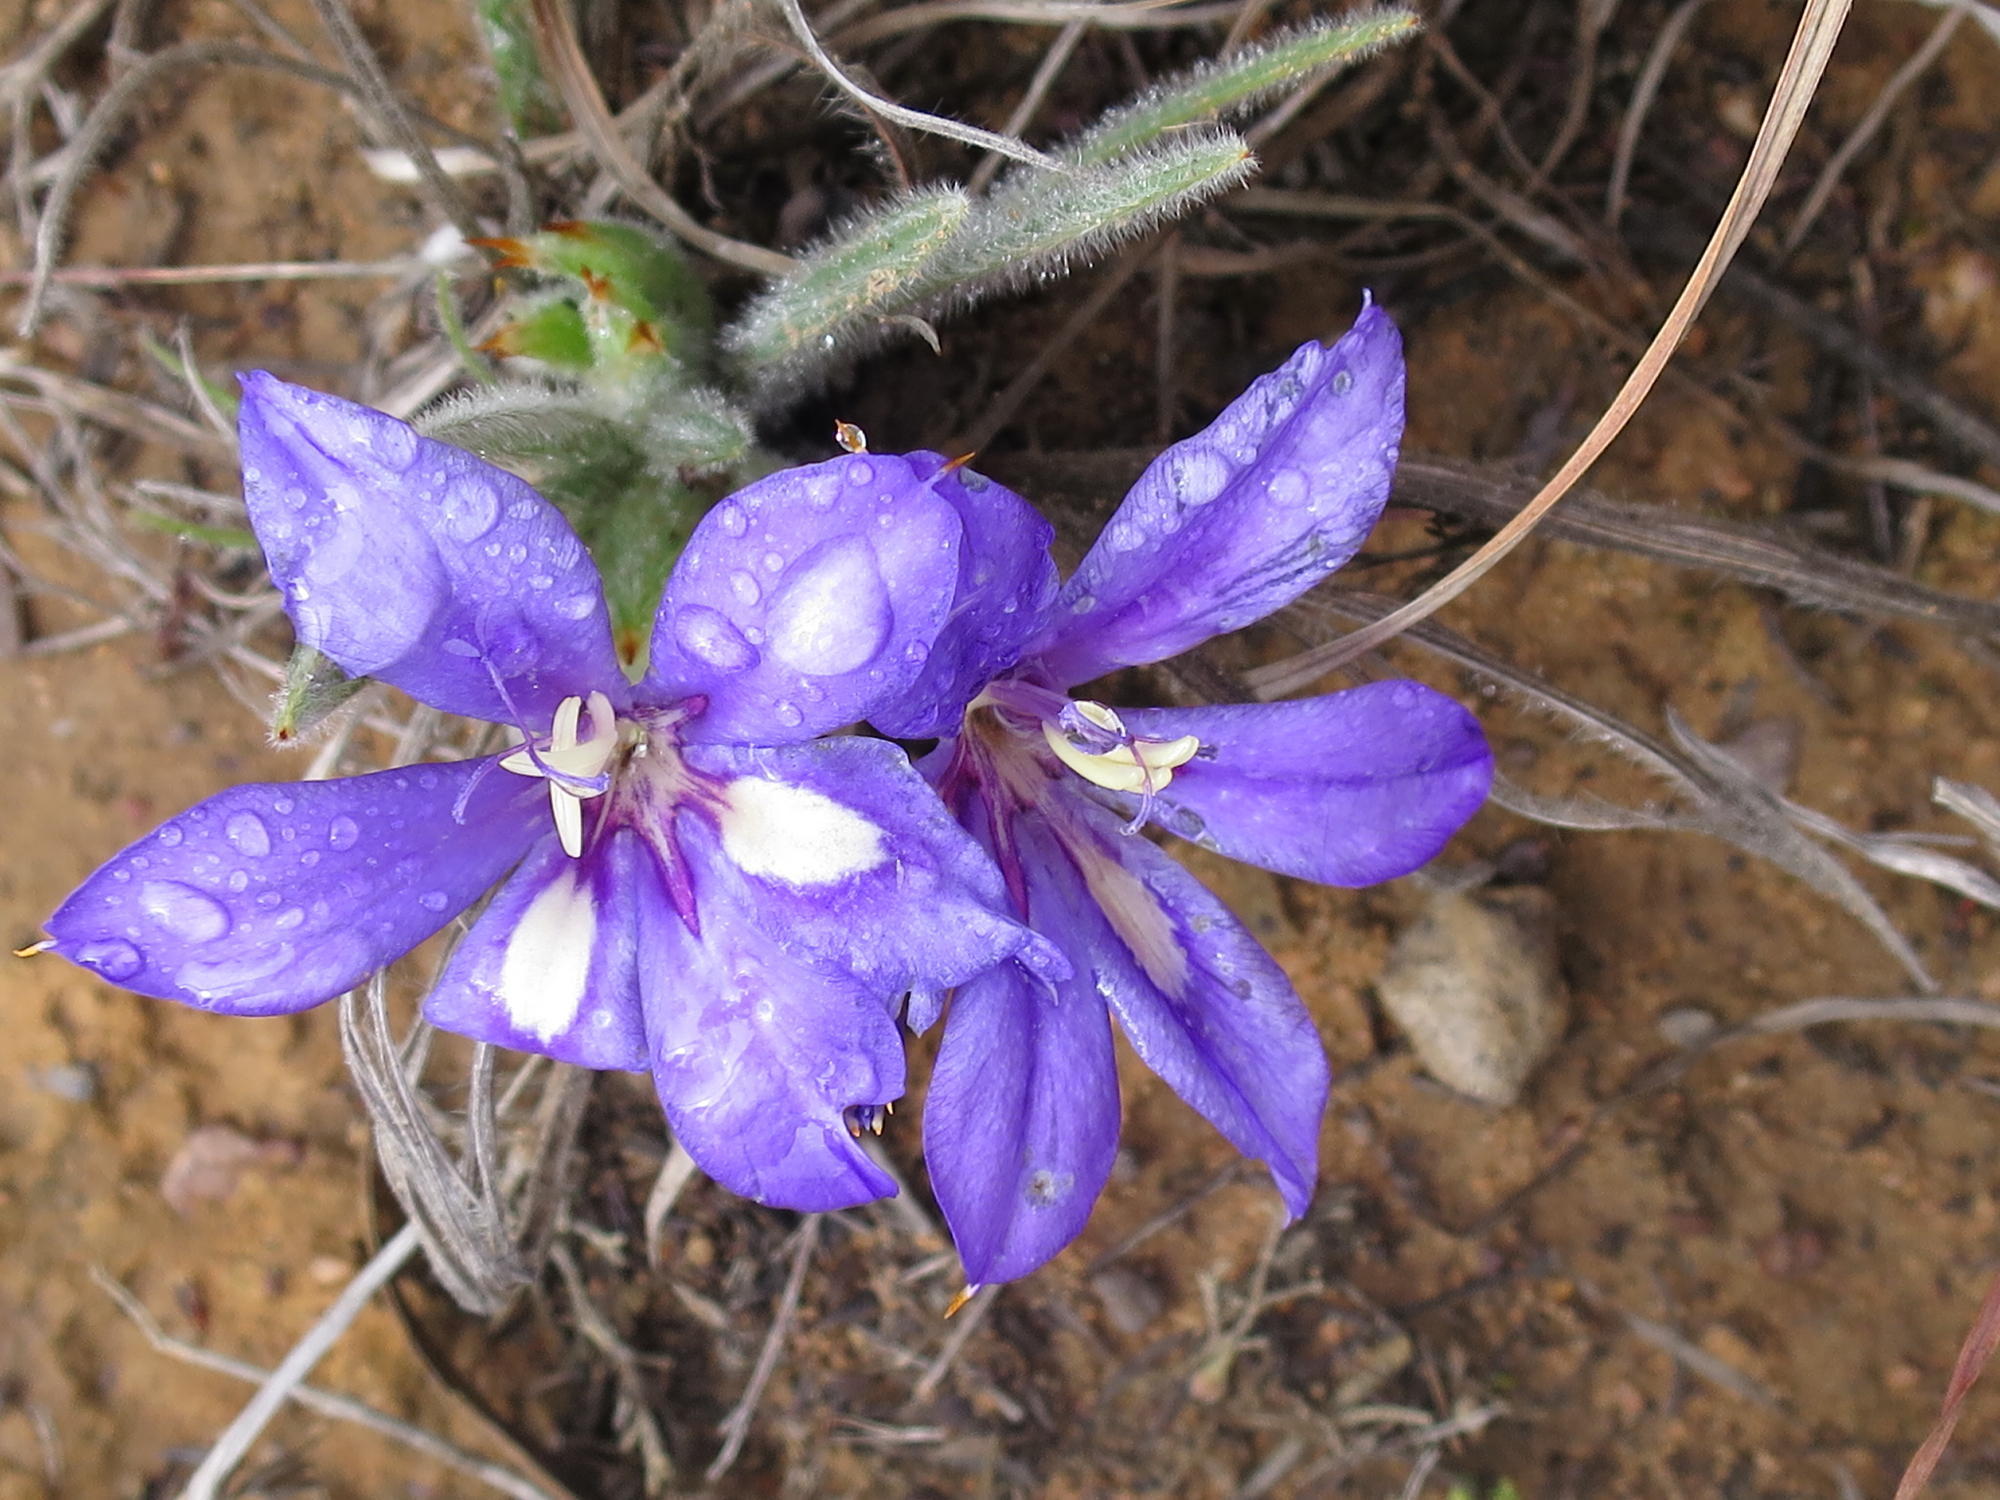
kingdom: Plantae
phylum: Tracheophyta
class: Liliopsida
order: Asparagales
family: Iridaceae
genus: Babiana
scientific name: Babiana sambucina
